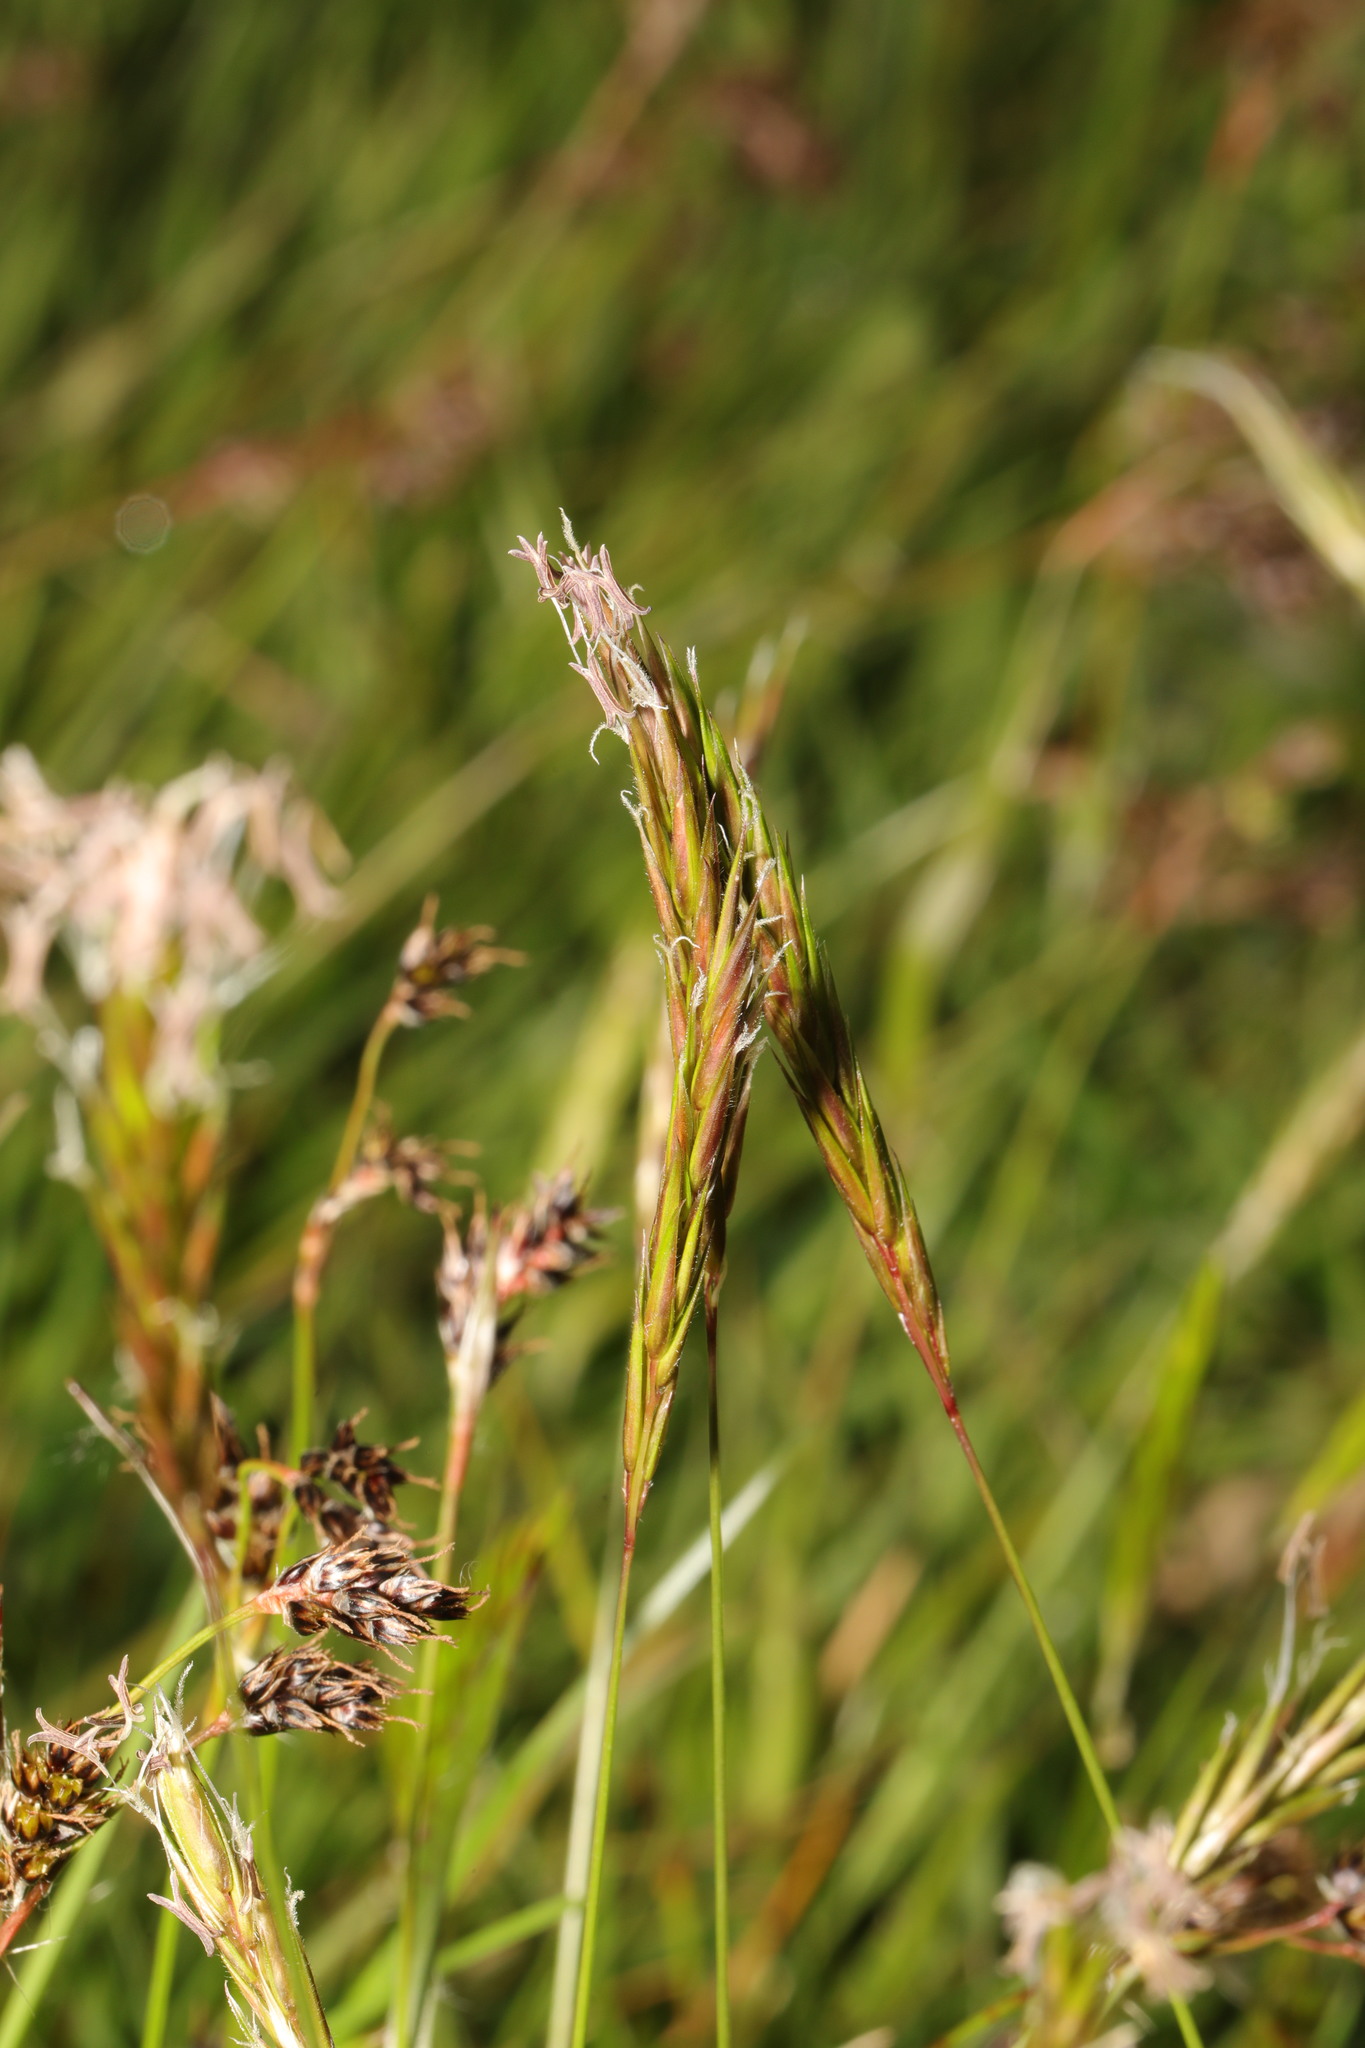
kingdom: Plantae
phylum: Tracheophyta
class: Liliopsida
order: Poales
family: Poaceae
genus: Anthoxanthum
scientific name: Anthoxanthum odoratum
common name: Sweet vernalgrass
